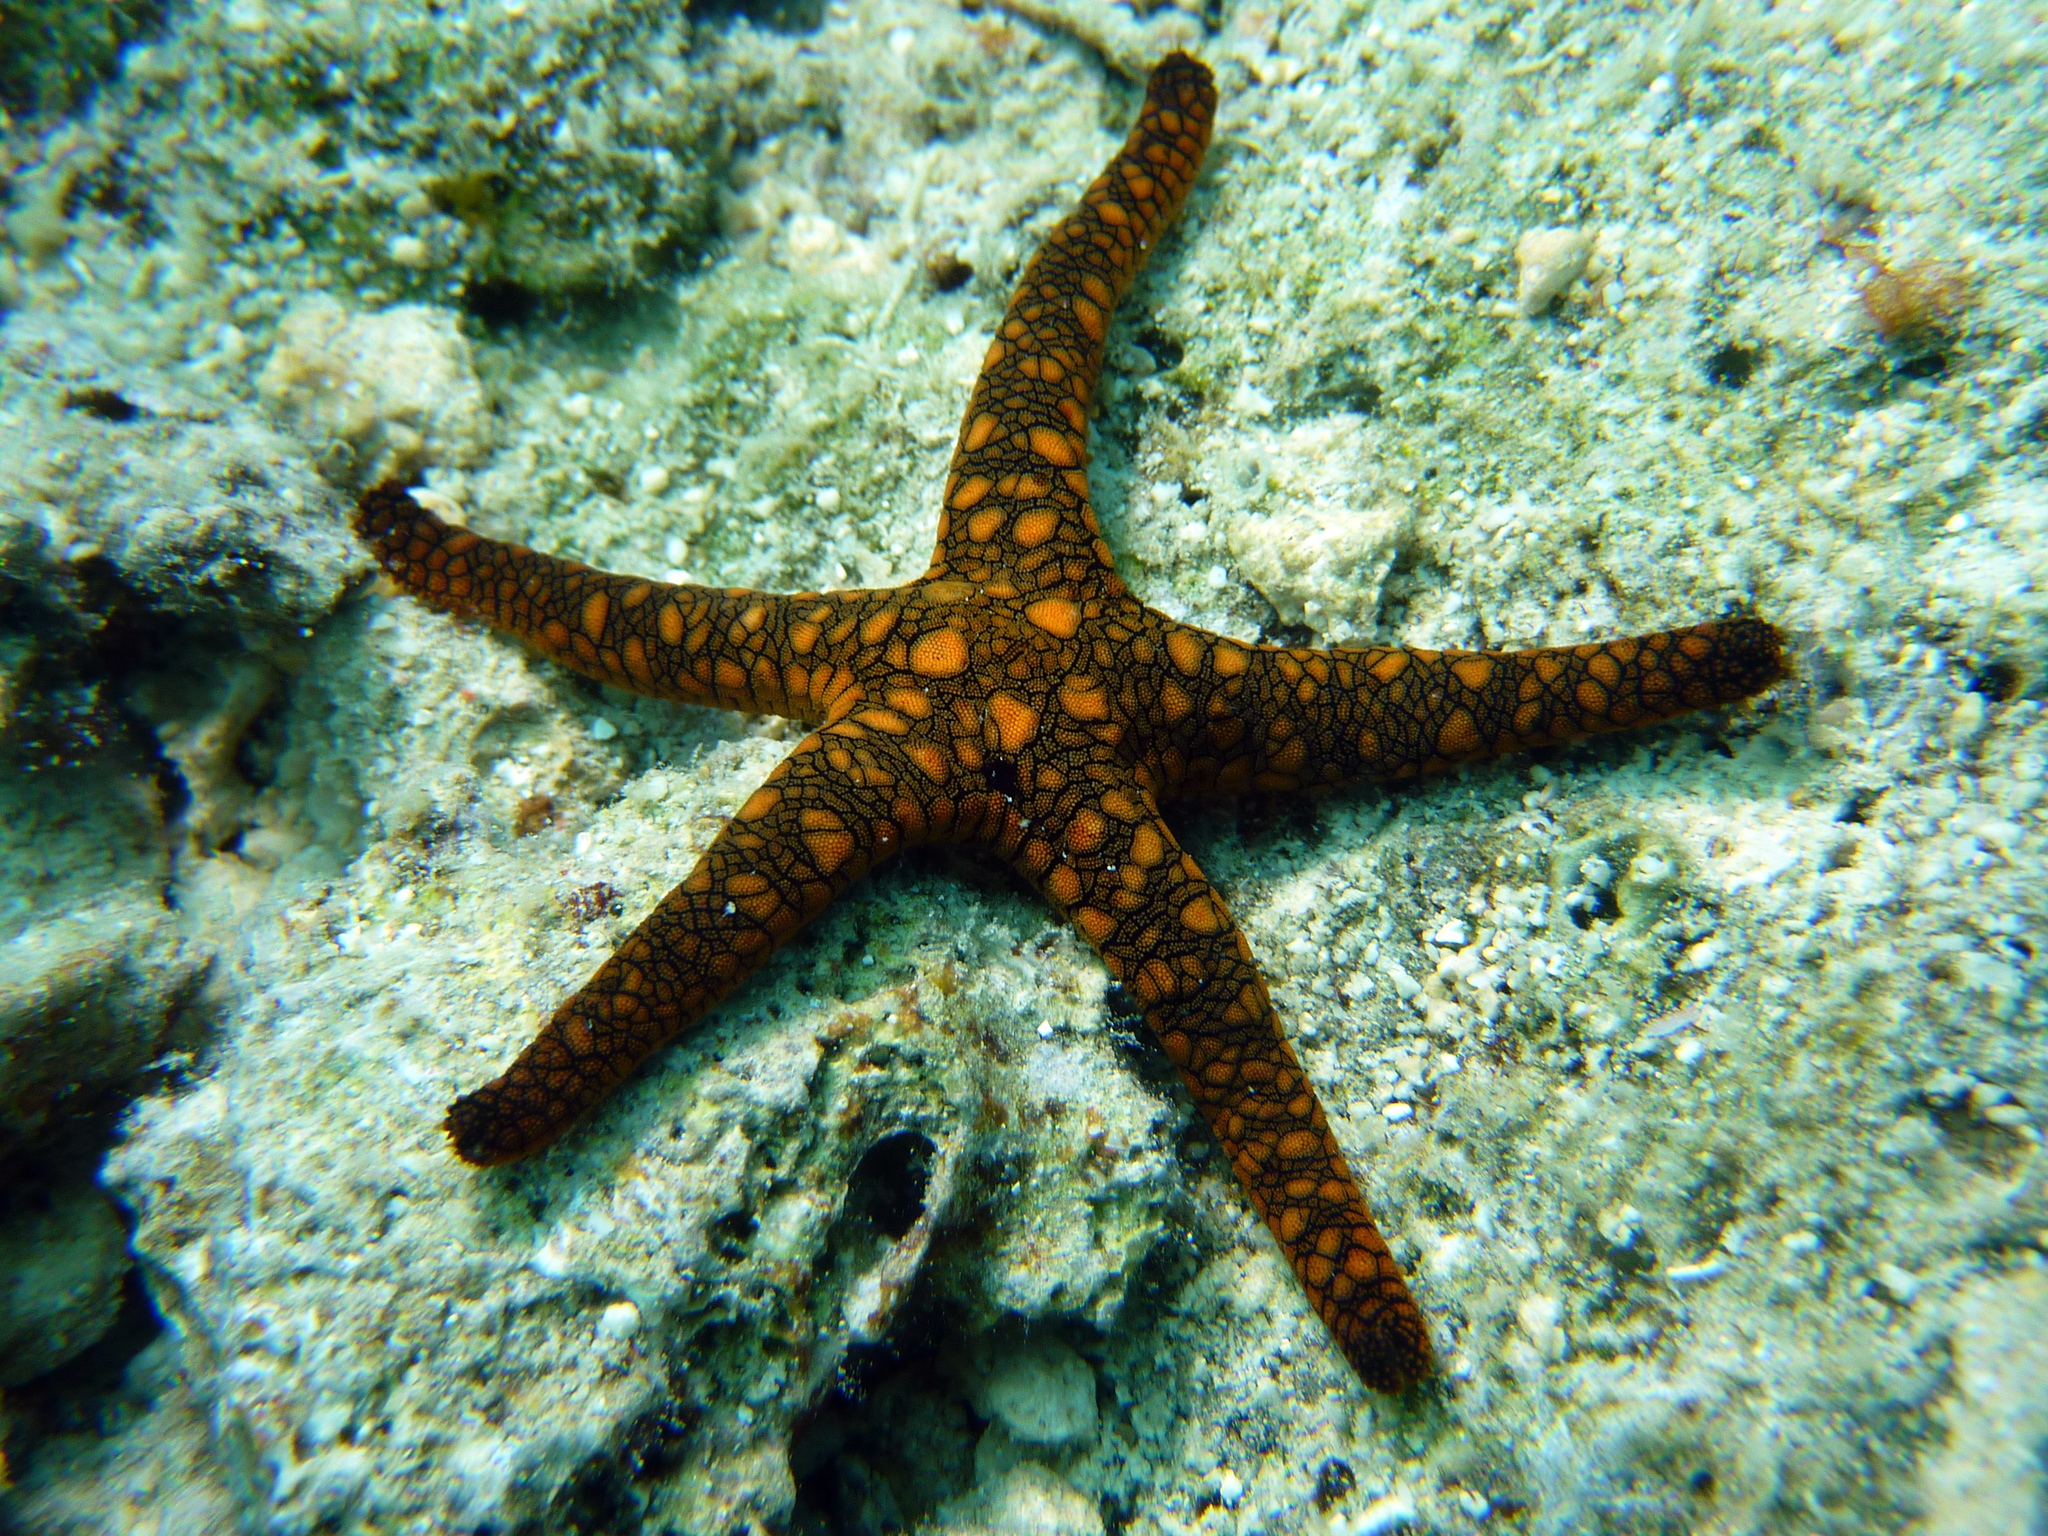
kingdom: Animalia
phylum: Echinodermata
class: Asteroidea
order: Valvatida
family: Goniasteridae
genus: Fromia
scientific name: Fromia indica
